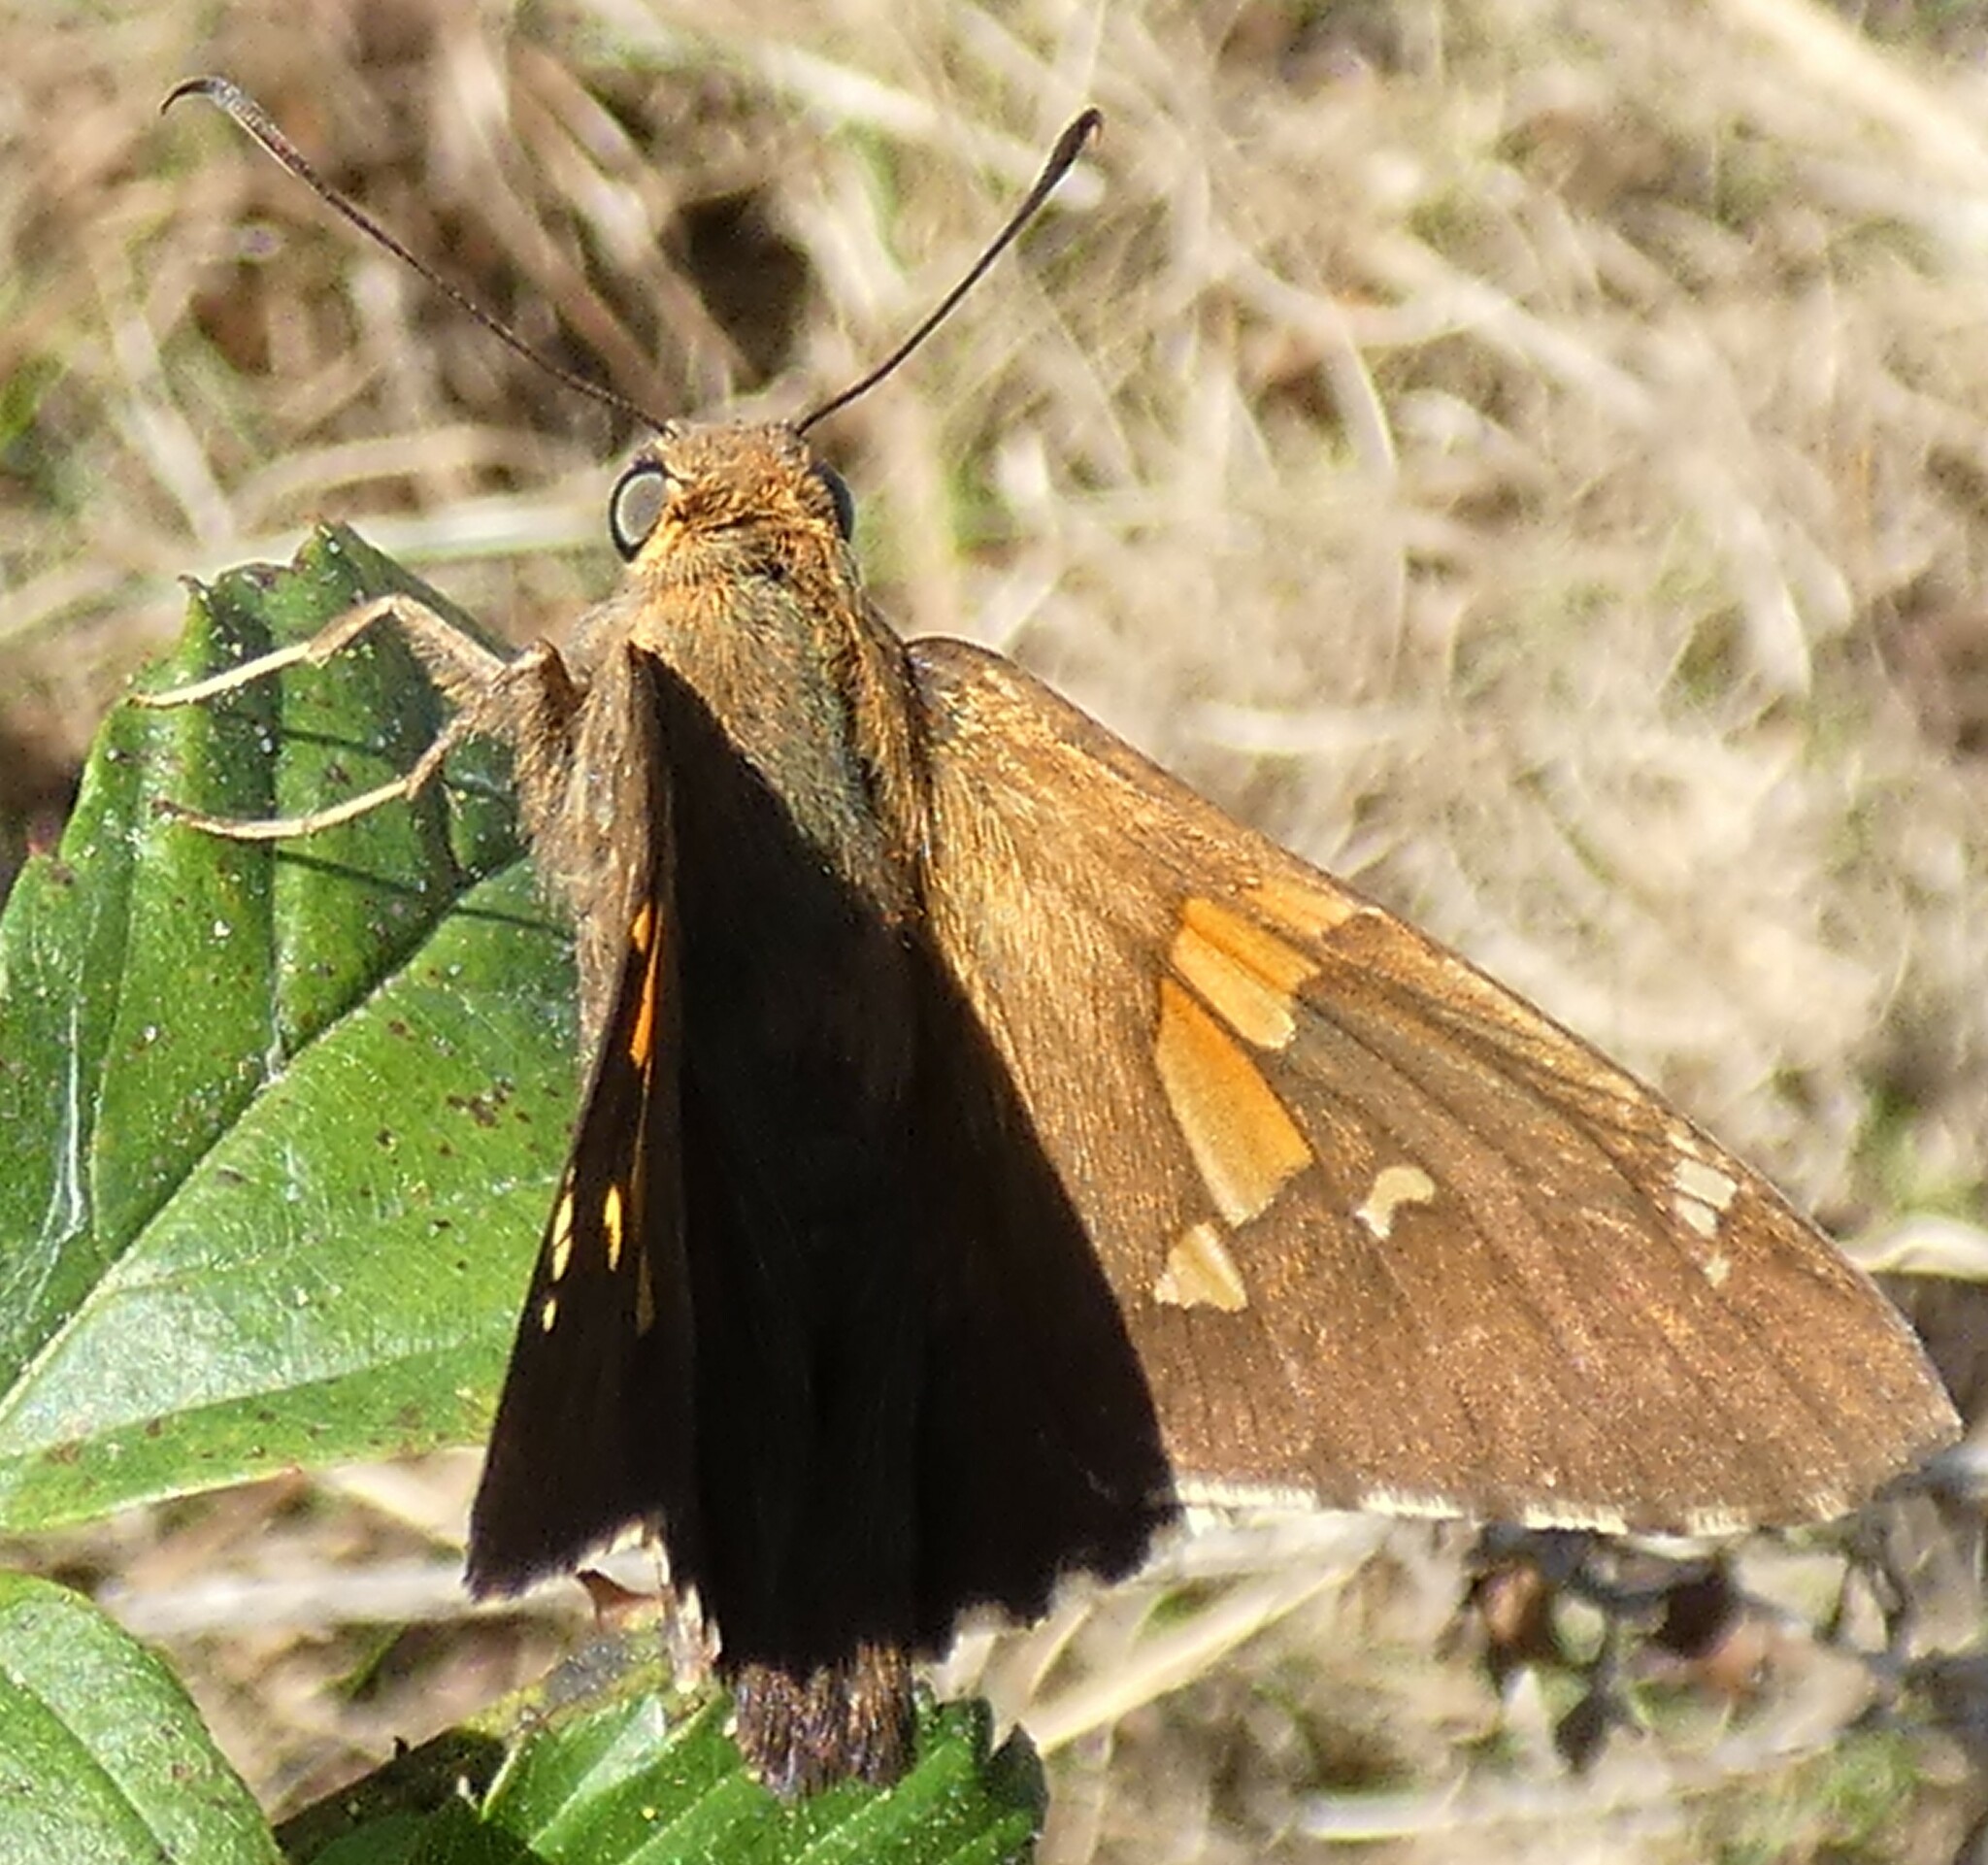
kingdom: Animalia
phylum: Arthropoda
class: Insecta
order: Lepidoptera
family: Hesperiidae
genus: Epargyreus
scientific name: Epargyreus clarus
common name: Silver-spotted skipper
